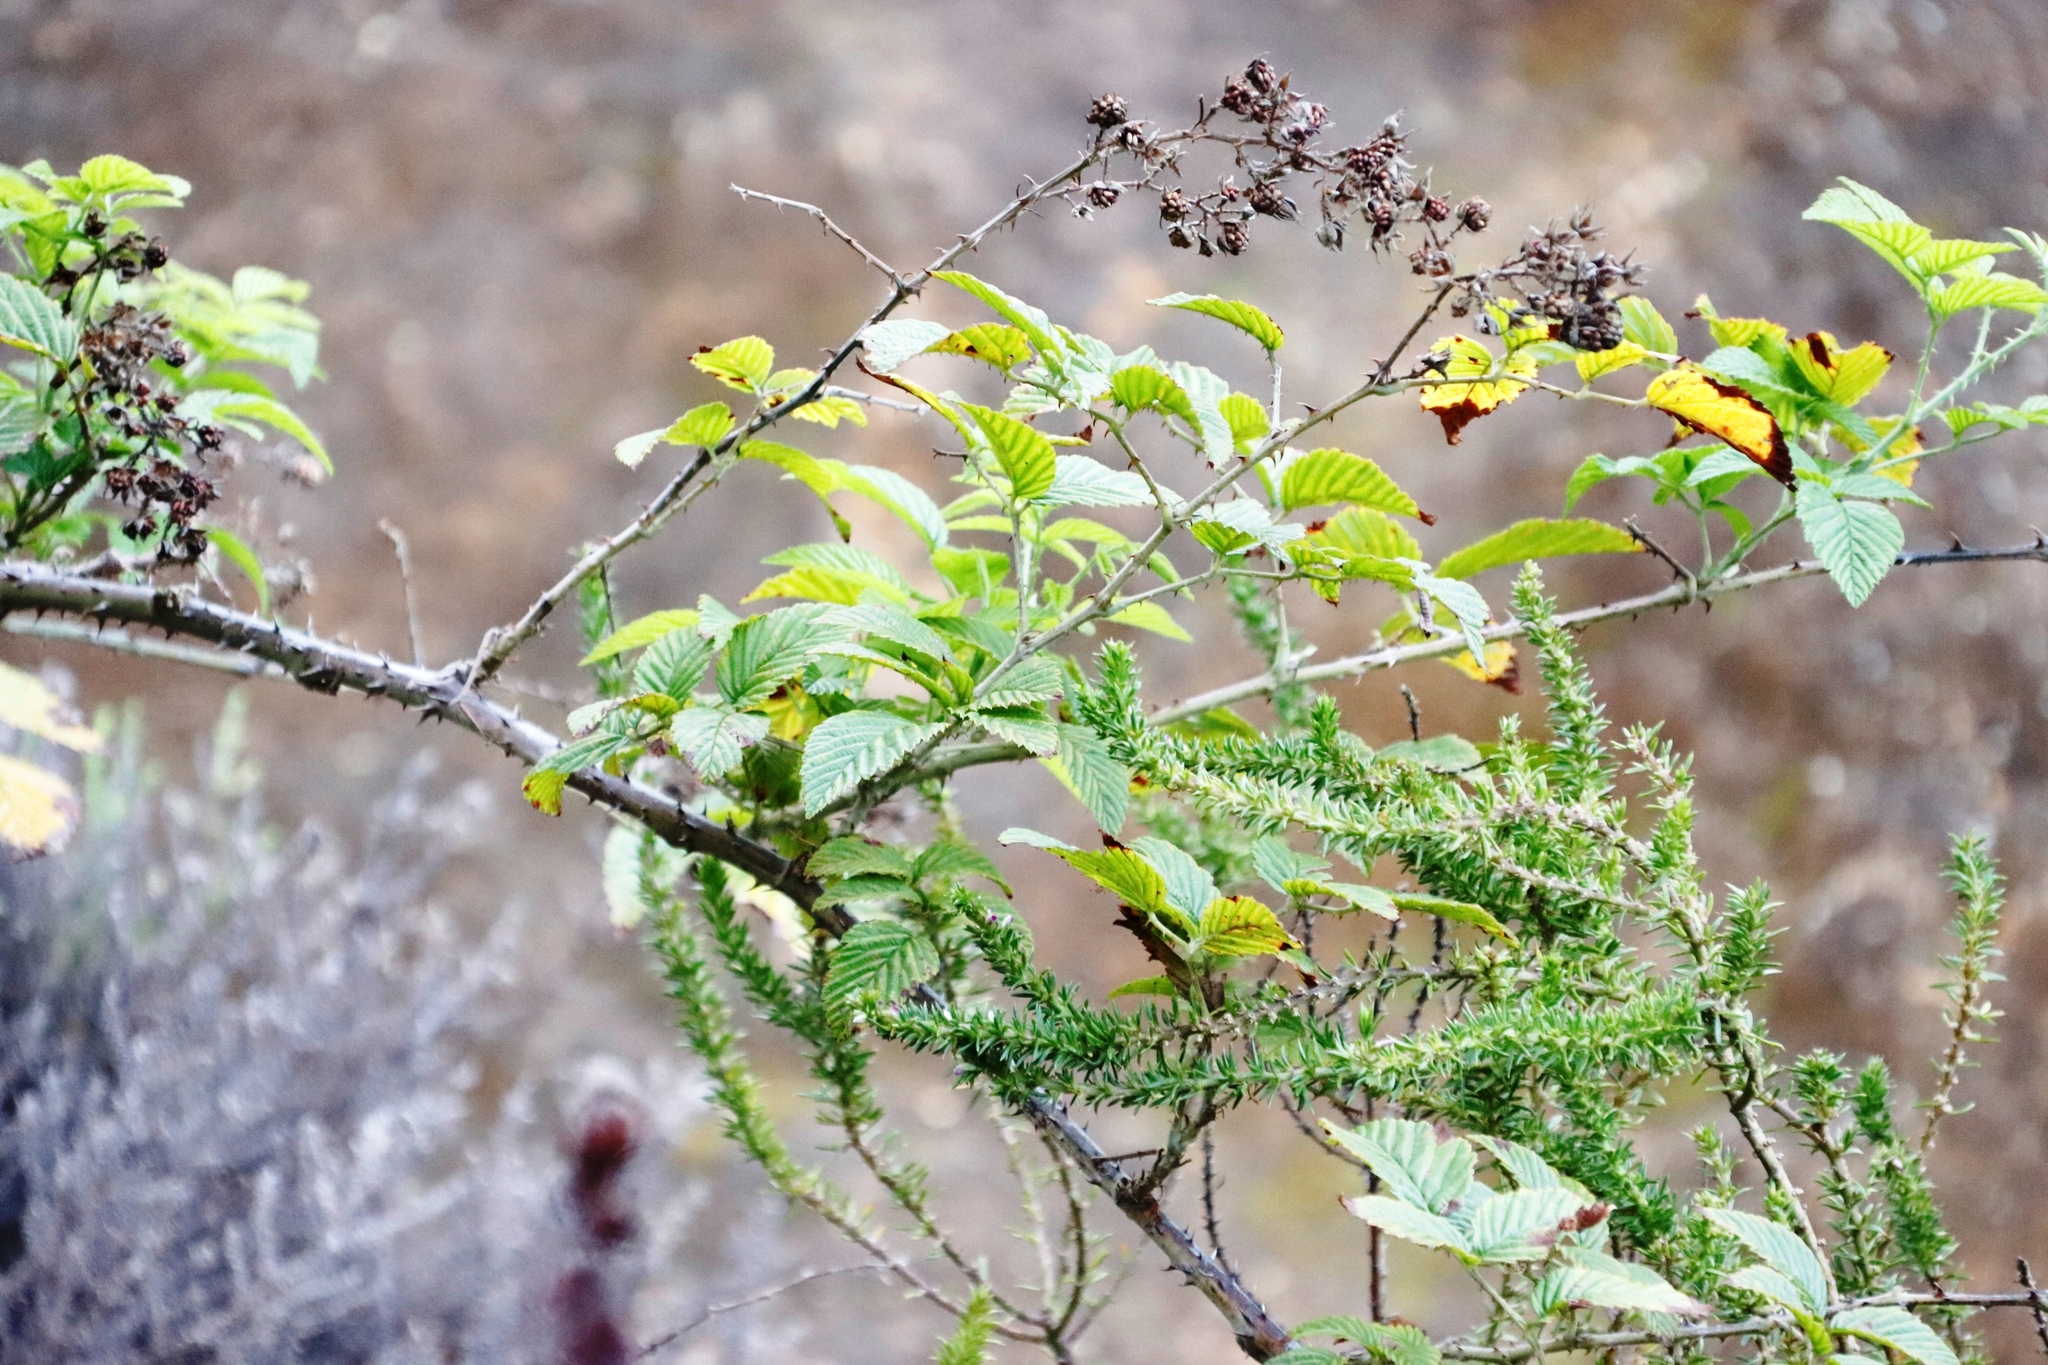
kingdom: Plantae
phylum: Tracheophyta
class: Magnoliopsida
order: Rosales
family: Rosaceae
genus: Rubus
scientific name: Rubus pinnatus
